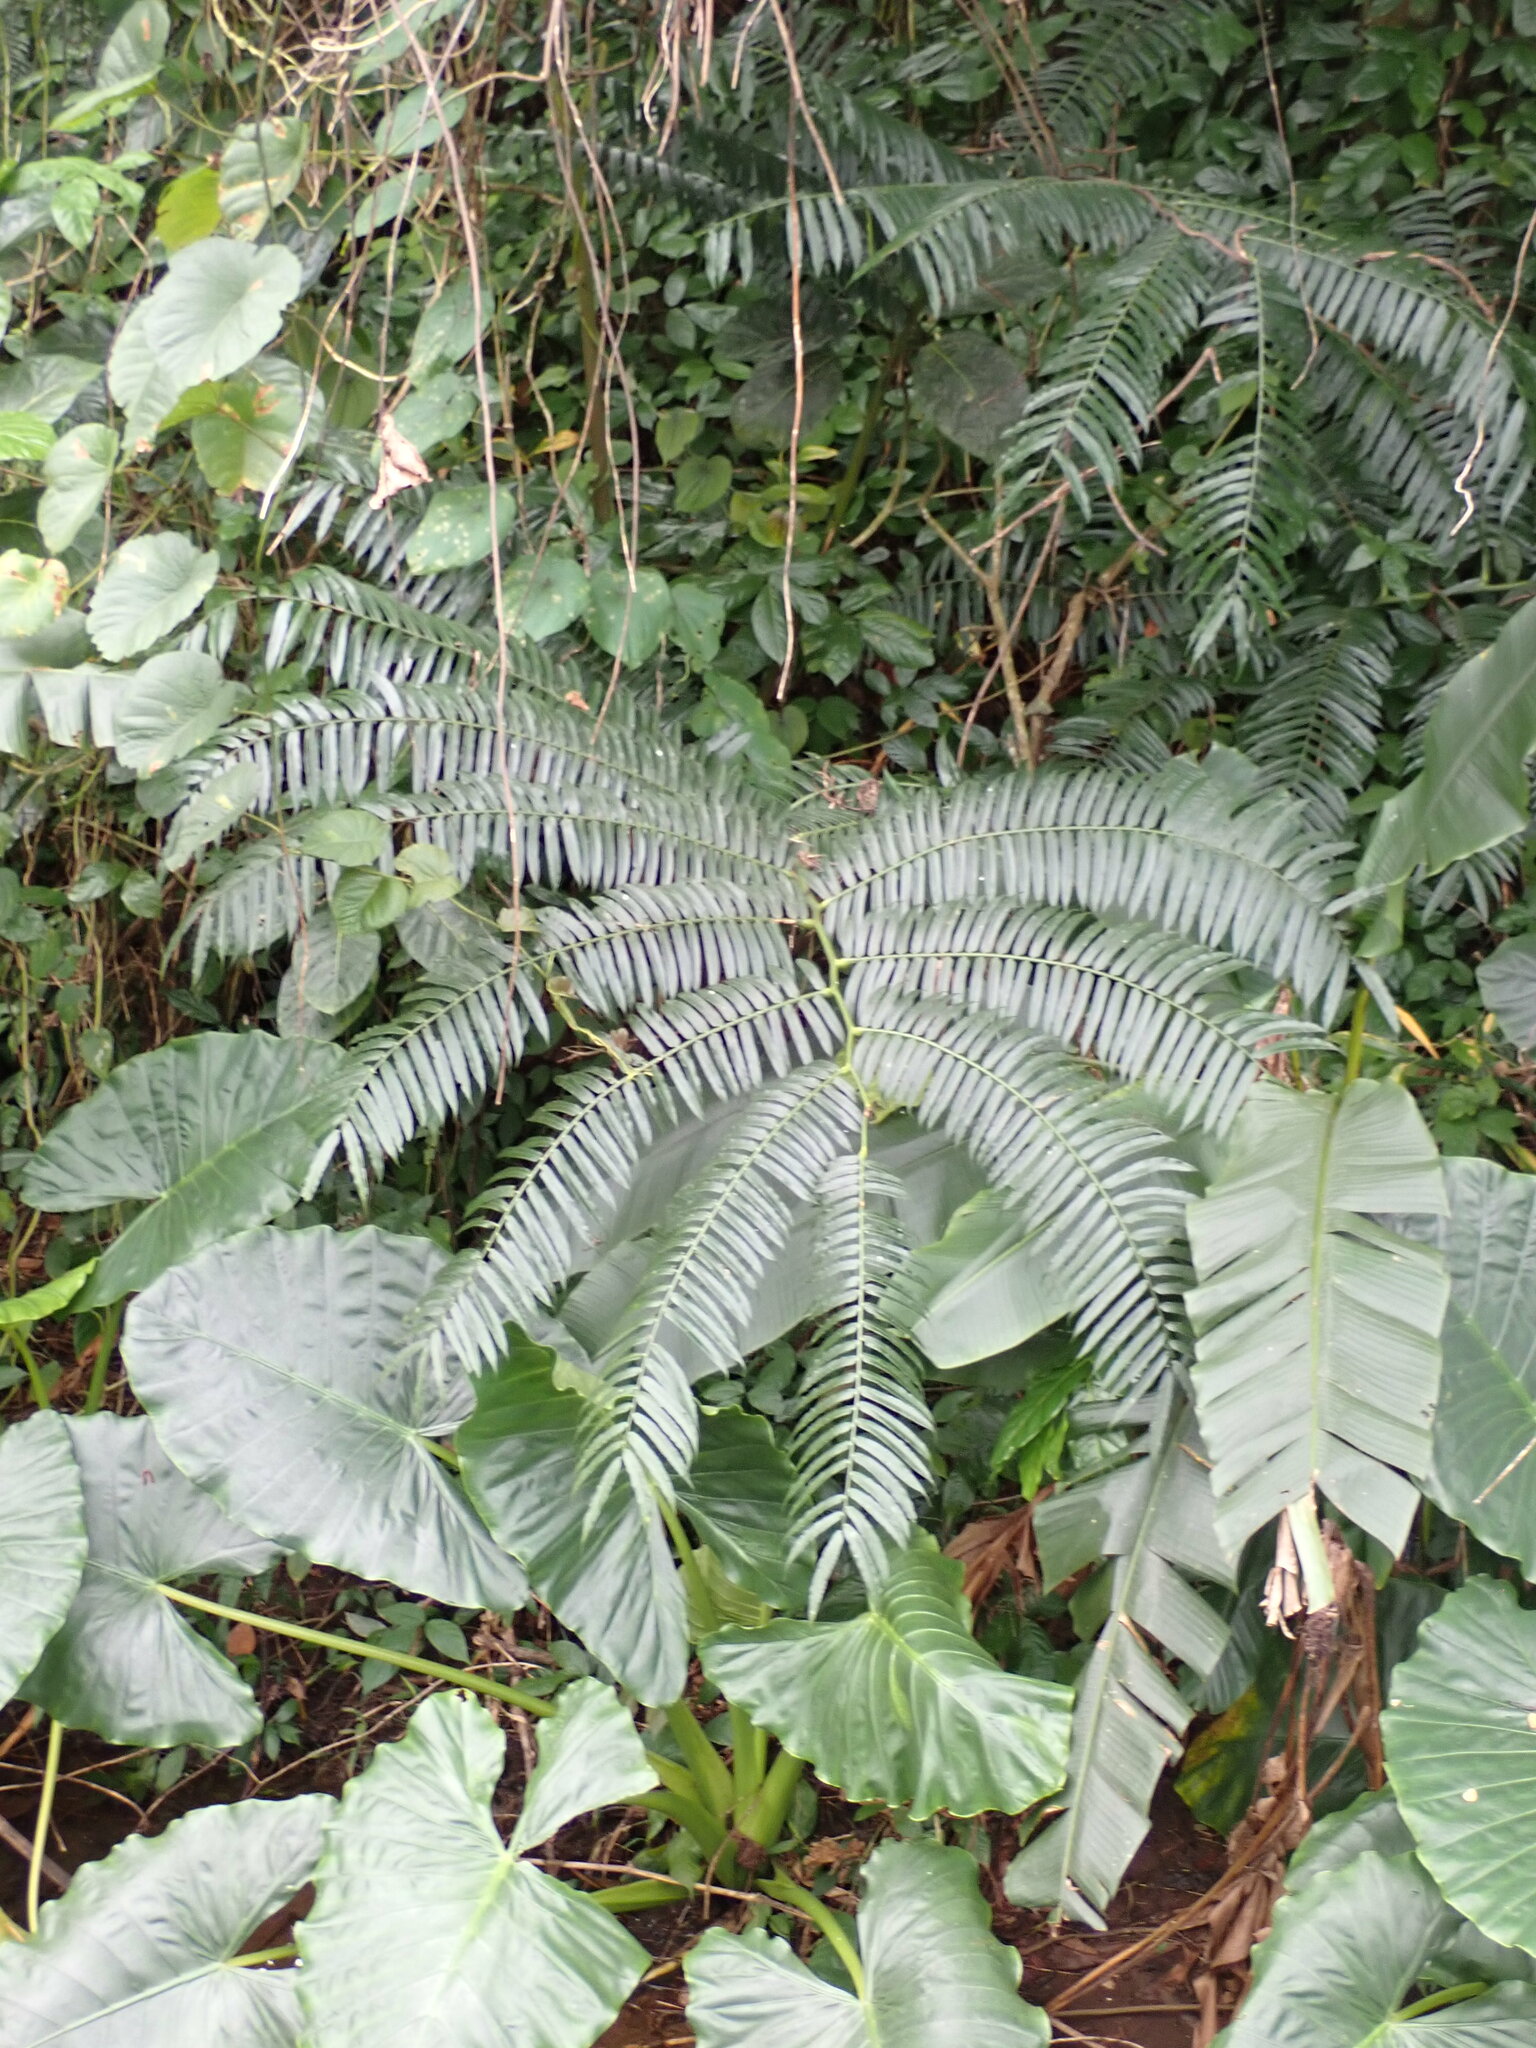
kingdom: Plantae
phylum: Tracheophyta
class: Polypodiopsida
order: Marattiales
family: Marattiaceae
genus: Angiopteris
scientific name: Angiopteris evecta
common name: Mule's-foot fern
